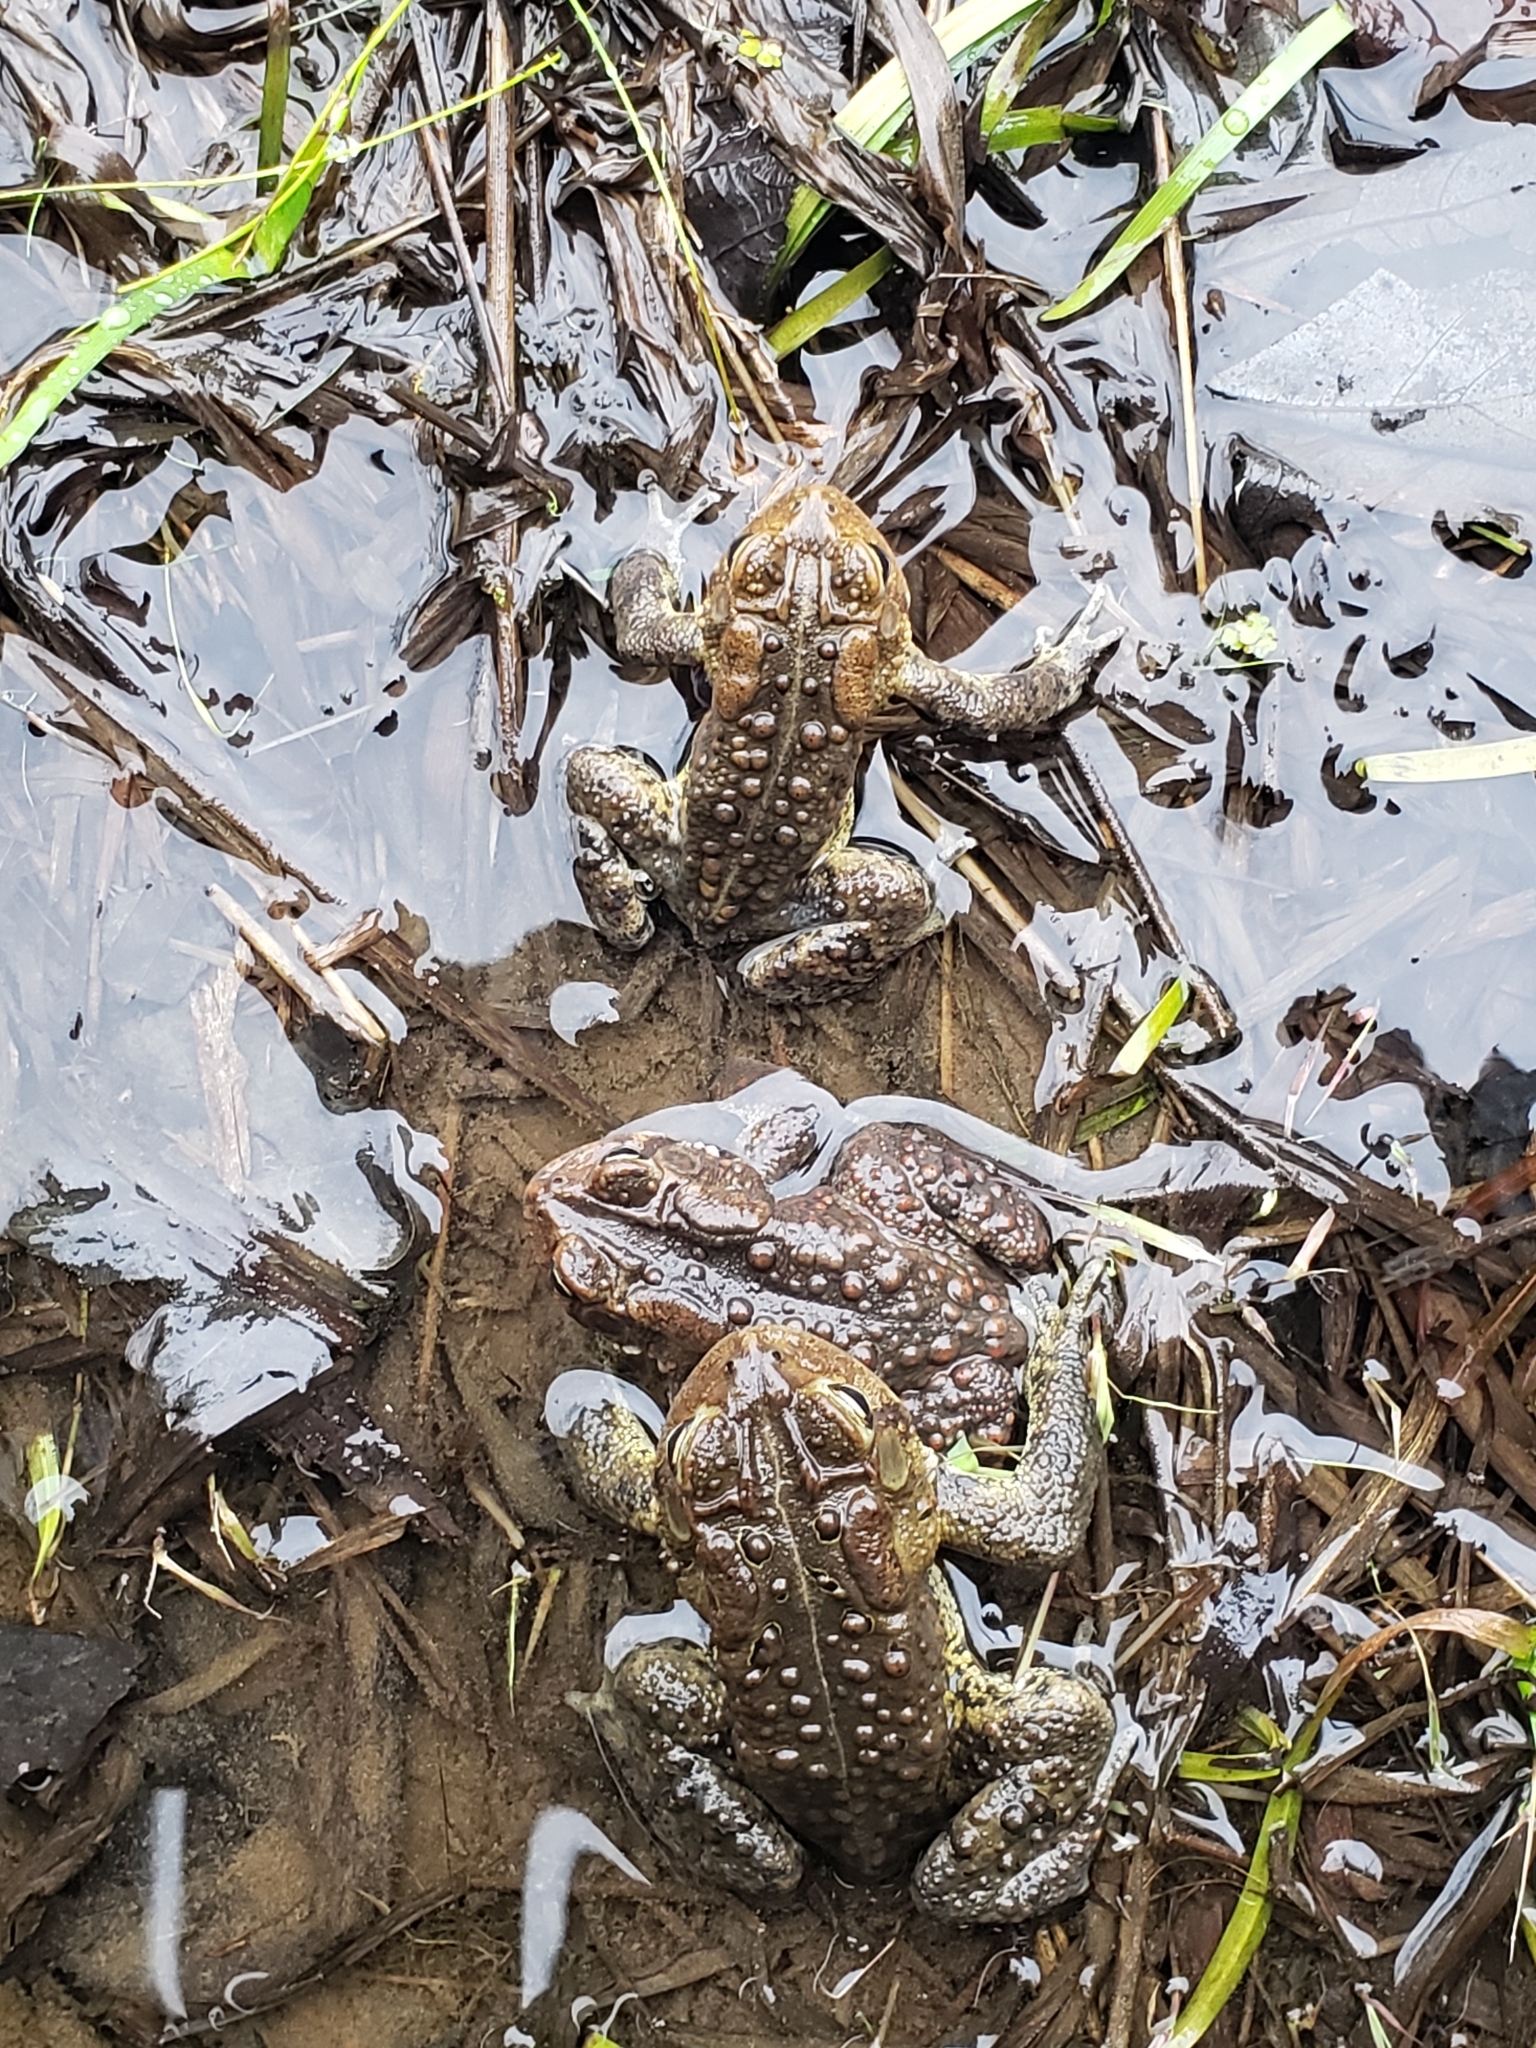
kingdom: Animalia
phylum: Chordata
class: Amphibia
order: Anura
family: Bufonidae
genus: Anaxyrus
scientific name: Anaxyrus americanus
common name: American toad
